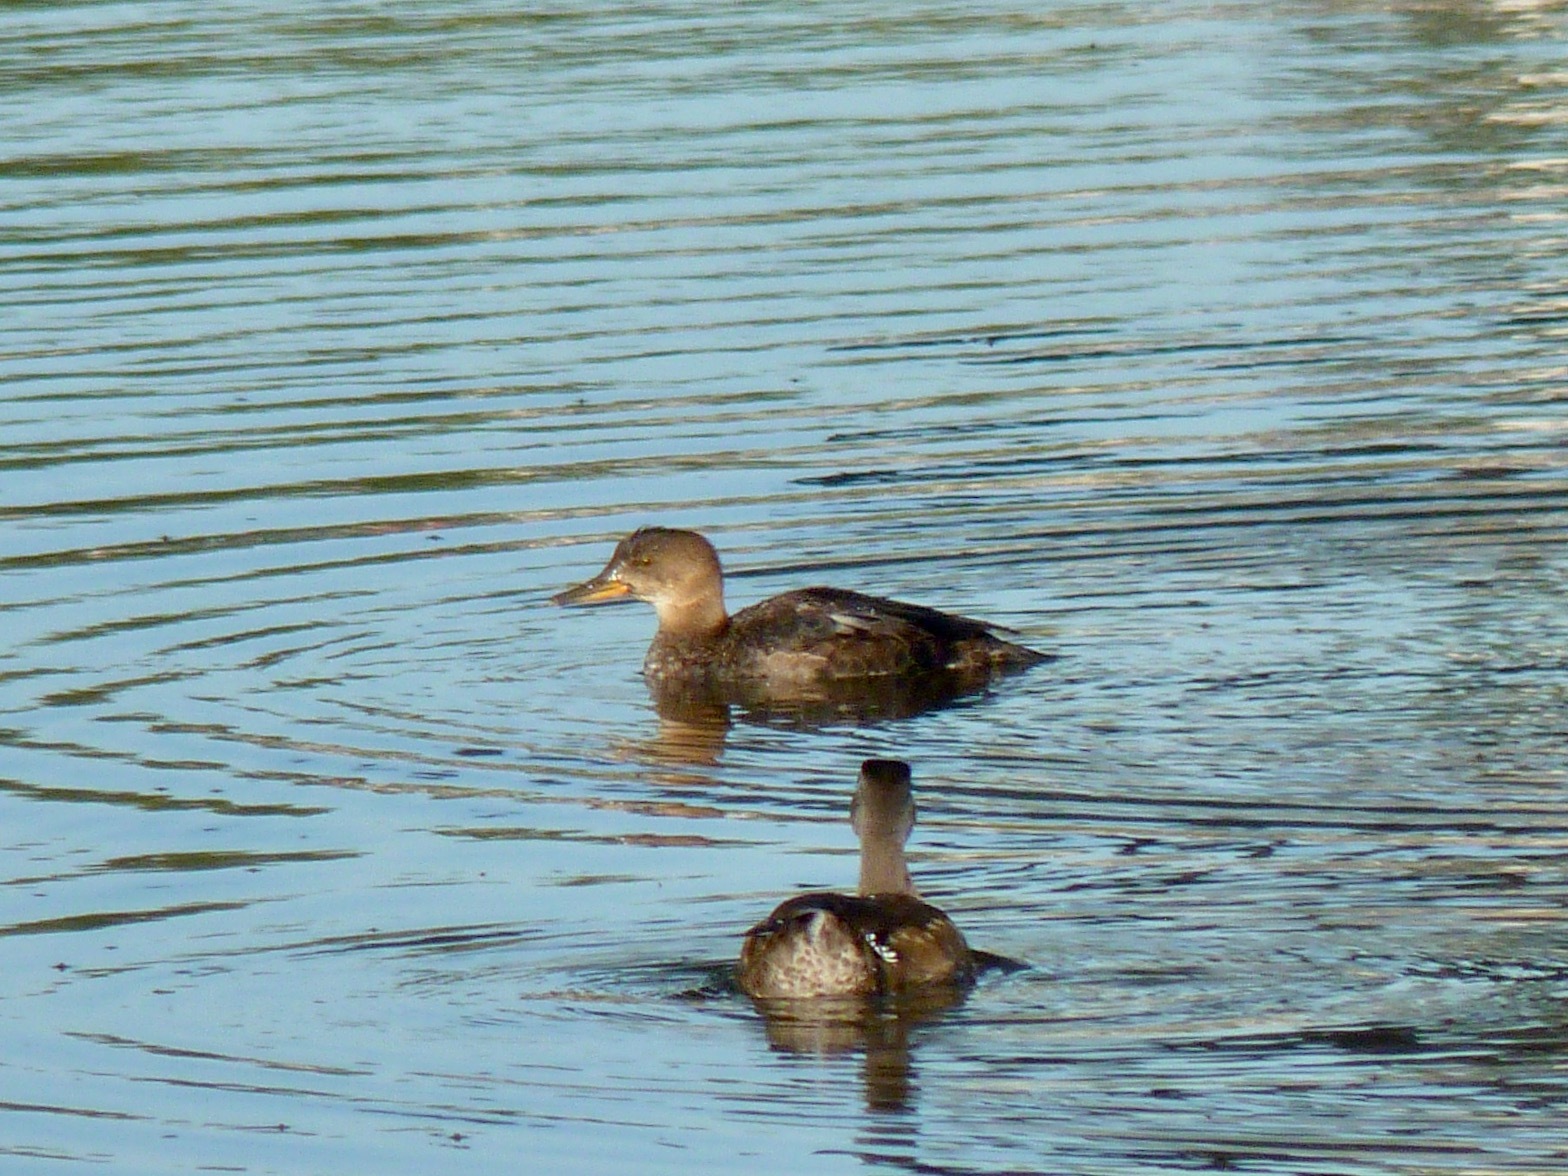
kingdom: Animalia
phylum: Chordata
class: Aves
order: Anseriformes
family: Anatidae
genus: Lophodytes
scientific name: Lophodytes cucullatus
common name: Hooded merganser
